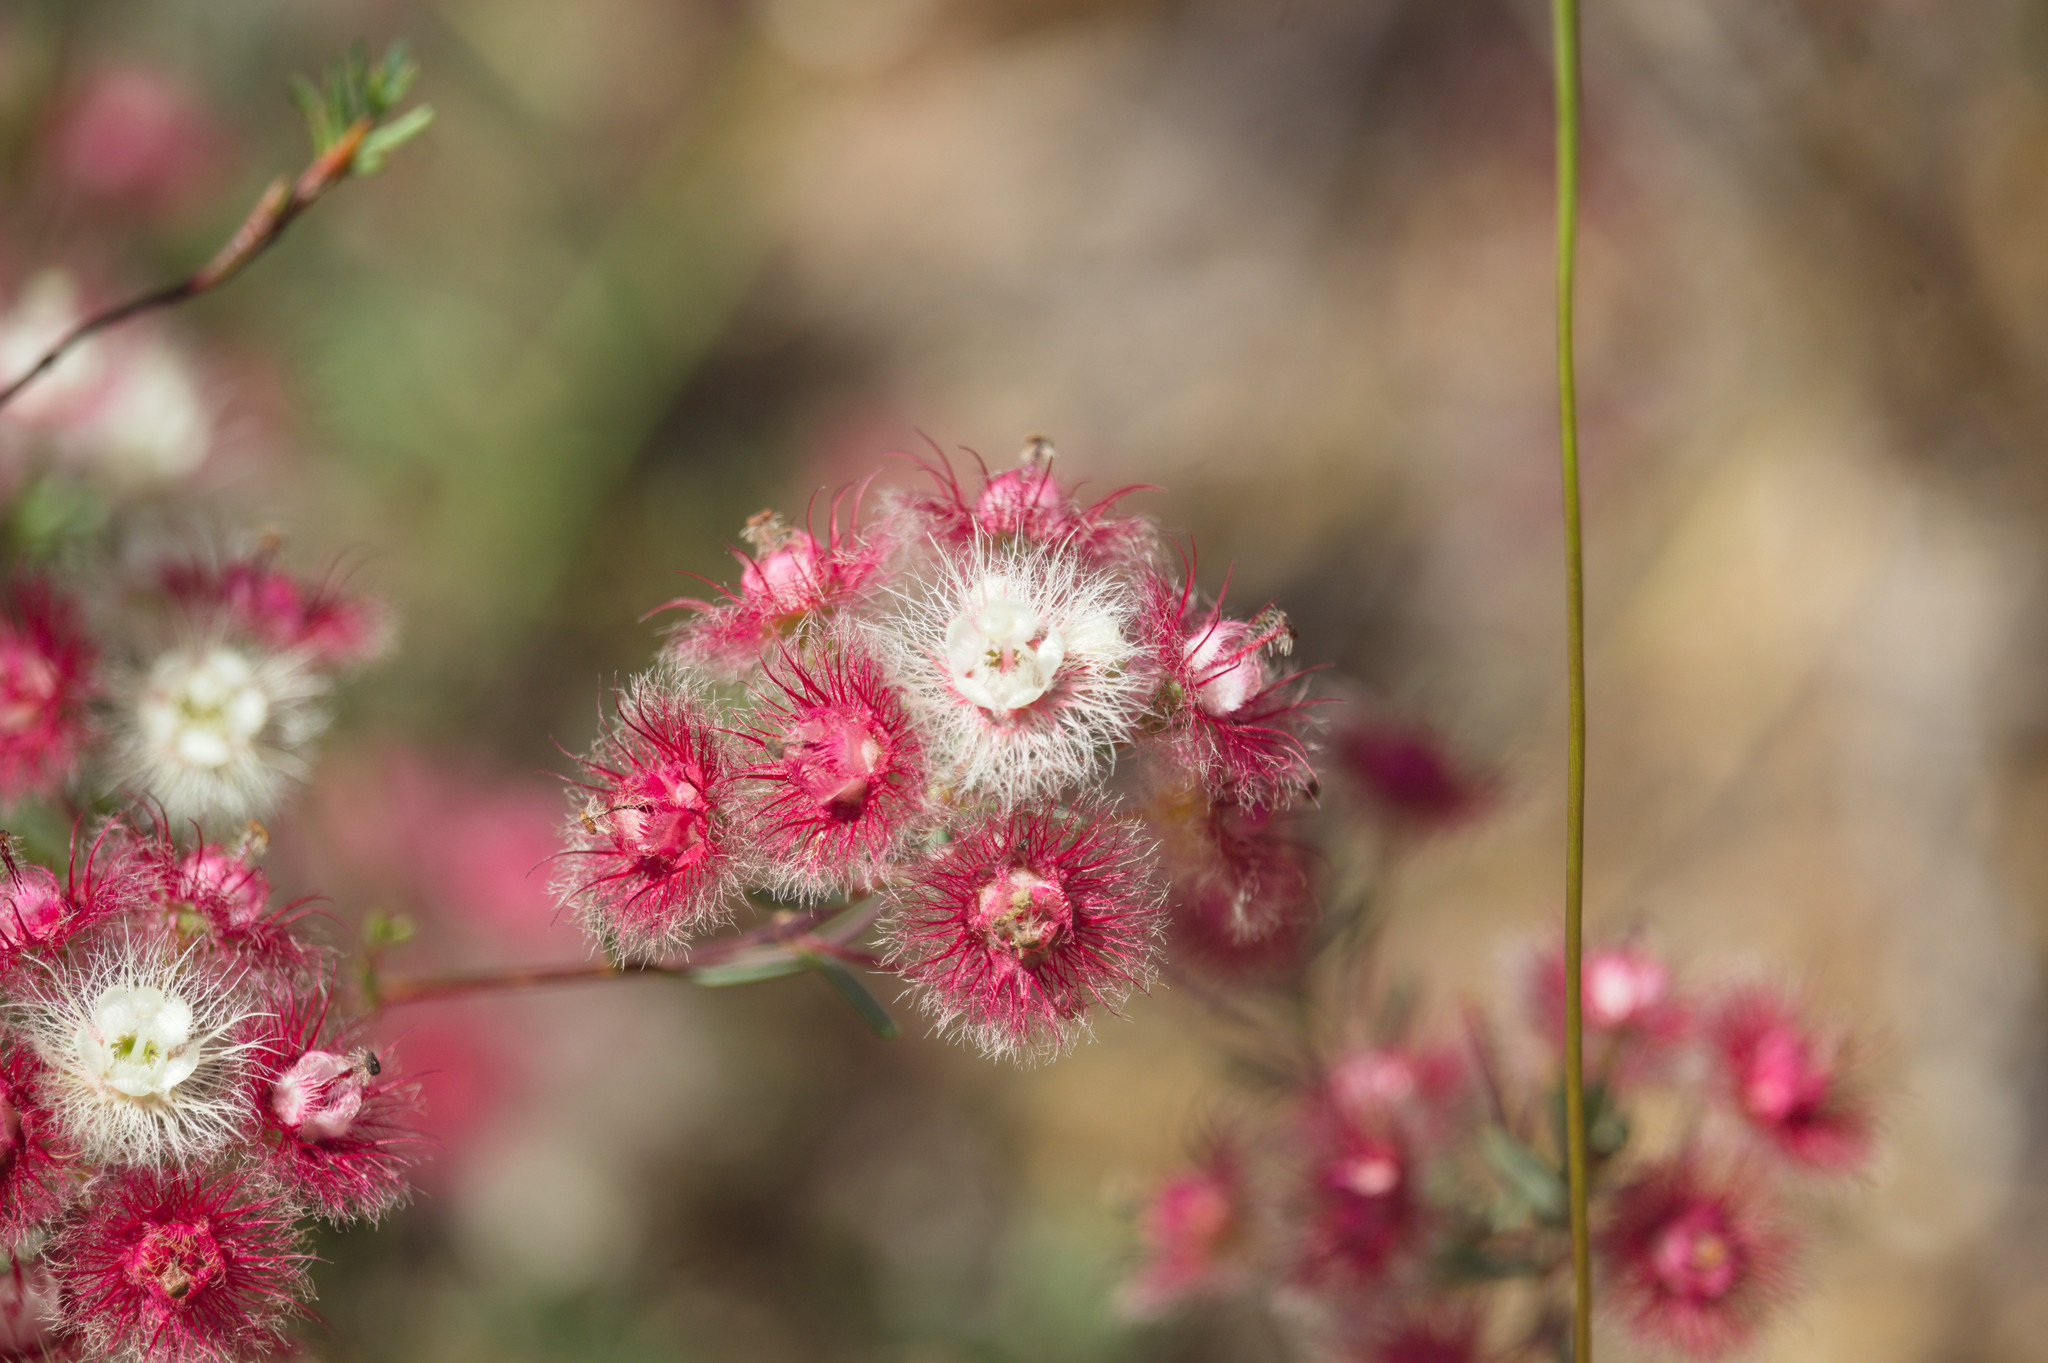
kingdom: Plantae
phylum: Tracheophyta
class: Magnoliopsida
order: Myrtales
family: Myrtaceae
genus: Verticordia
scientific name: Verticordia huegelii
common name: Variegate feather-flower
